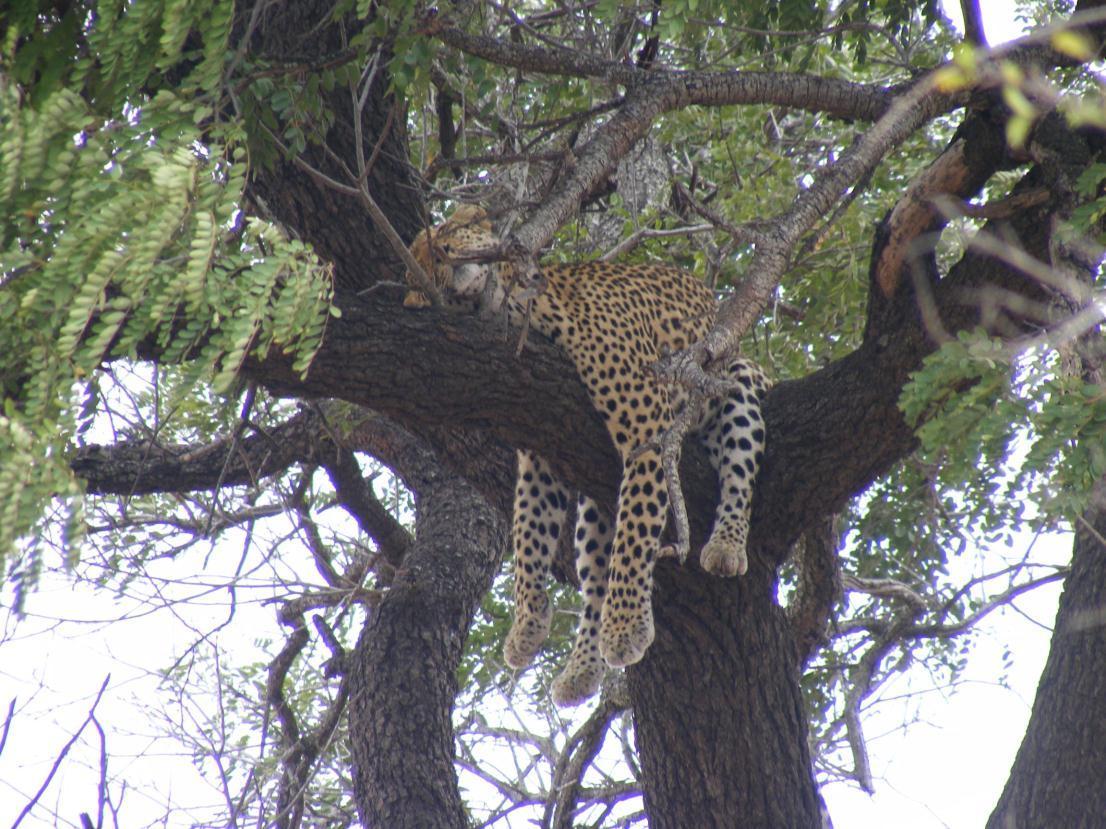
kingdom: Animalia
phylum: Chordata
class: Mammalia
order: Carnivora
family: Felidae
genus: Panthera
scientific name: Panthera pardus
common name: Leopard
